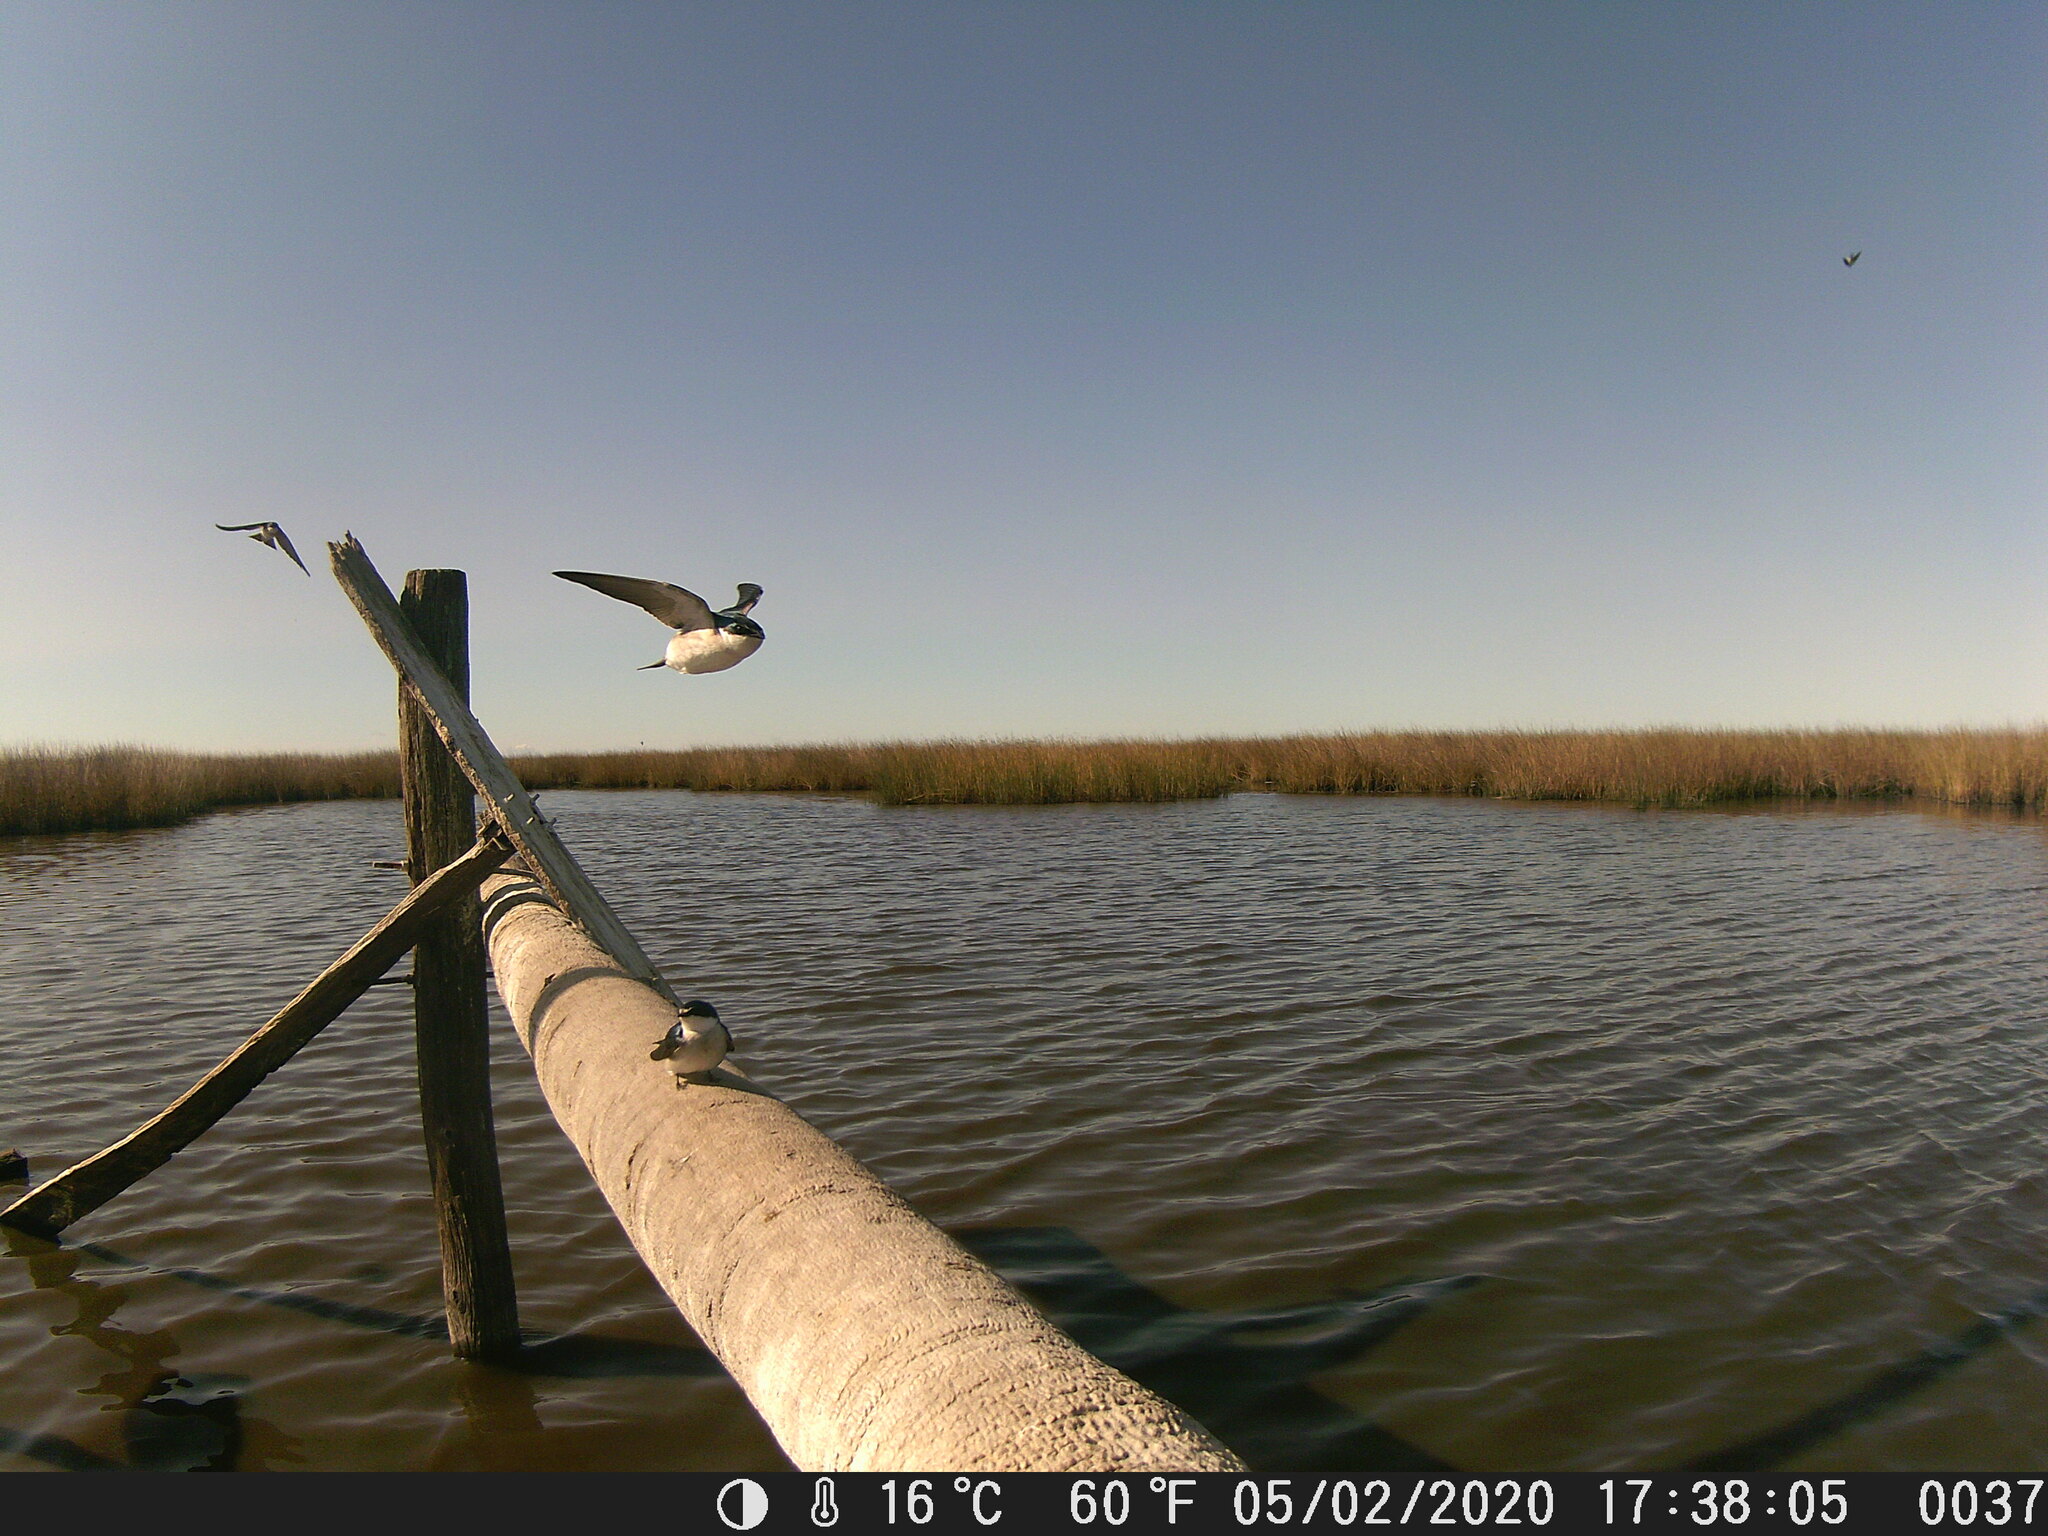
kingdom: Animalia
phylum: Chordata
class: Aves
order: Passeriformes
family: Hirundinidae
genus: Tachycineta
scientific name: Tachycineta leucorrhoa
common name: White-rumped swallow
